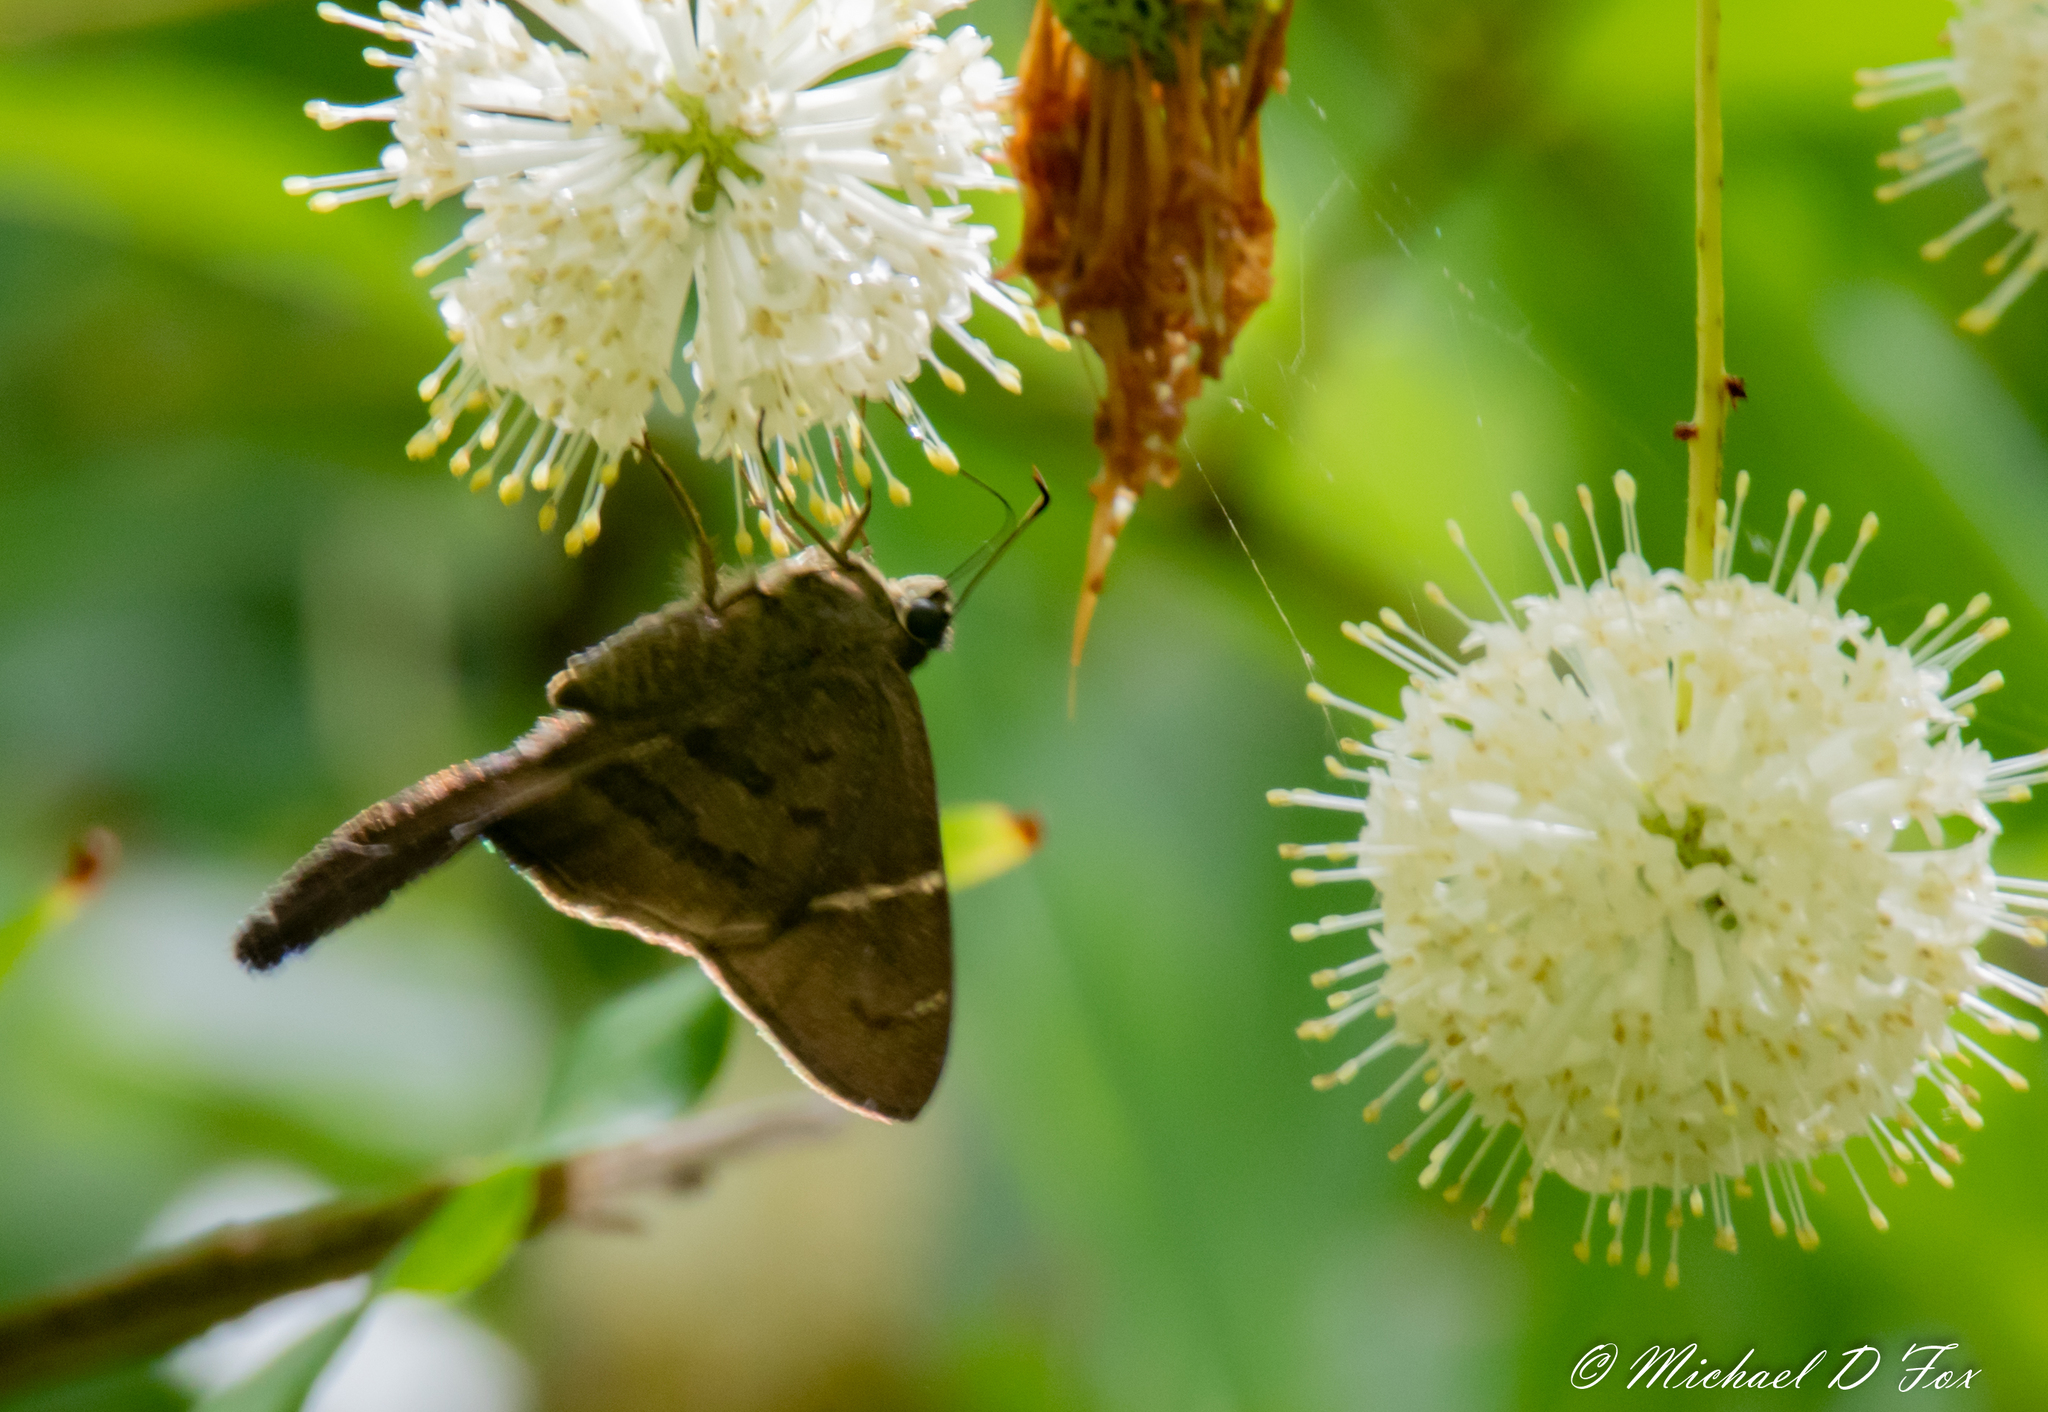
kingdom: Animalia
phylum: Arthropoda
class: Insecta
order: Lepidoptera
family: Hesperiidae
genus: Urbanus
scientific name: Urbanus procne
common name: Brown longtail
